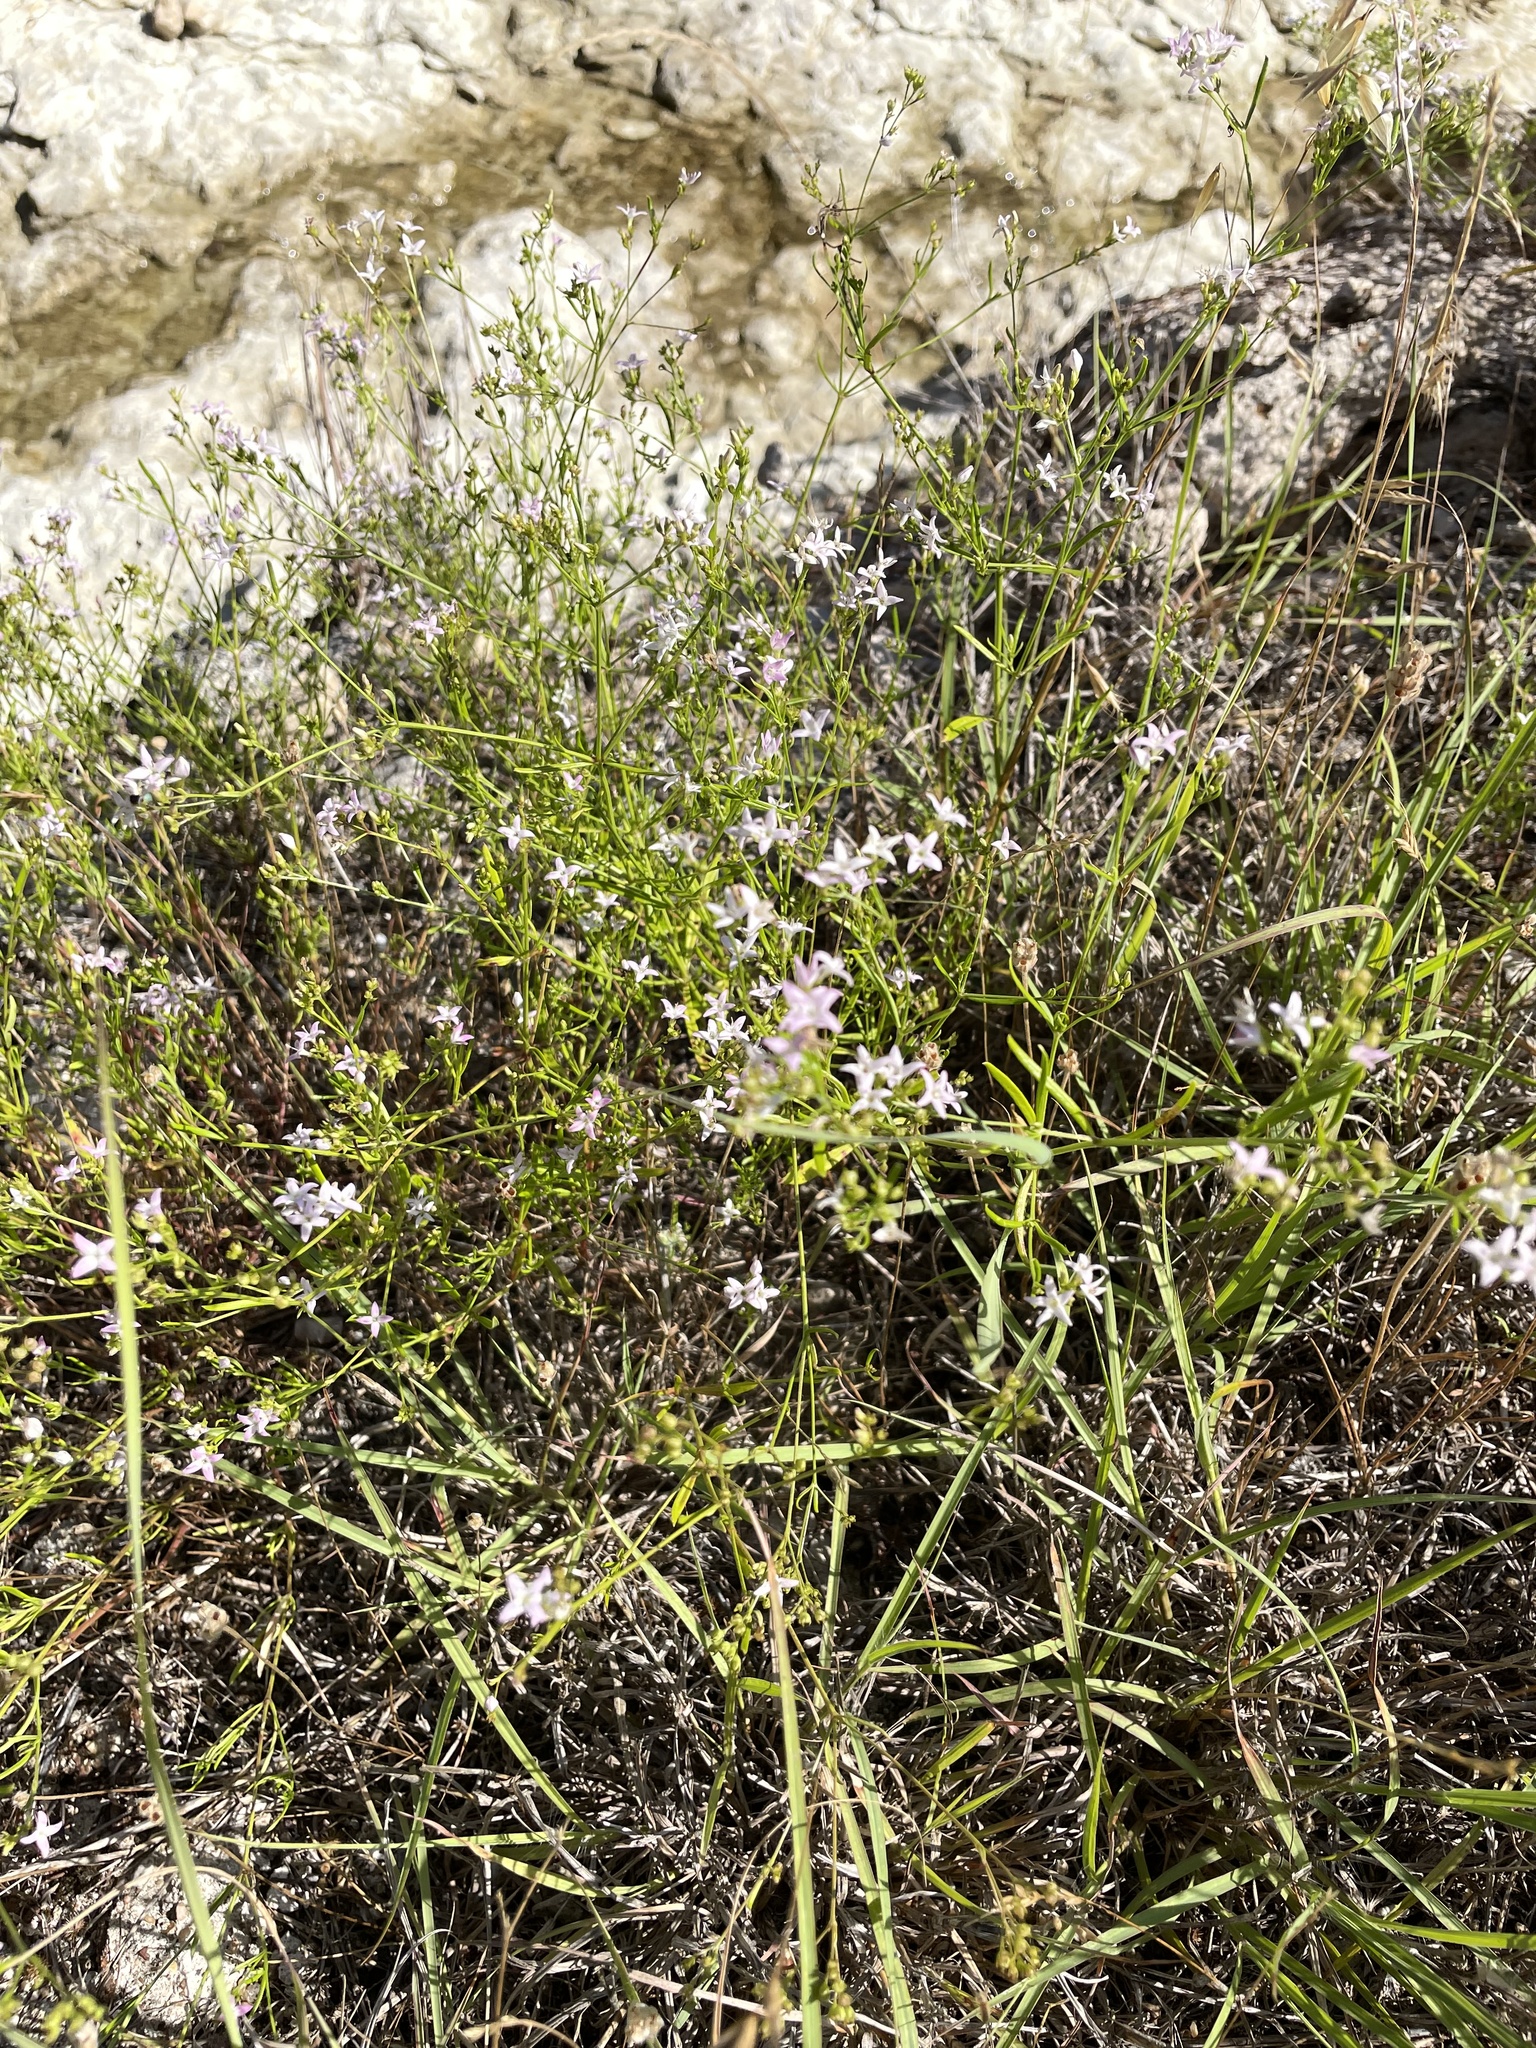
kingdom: Plantae
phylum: Tracheophyta
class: Magnoliopsida
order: Gentianales
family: Rubiaceae
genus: Stenaria
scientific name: Stenaria nigricans
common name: Diamondflowers
